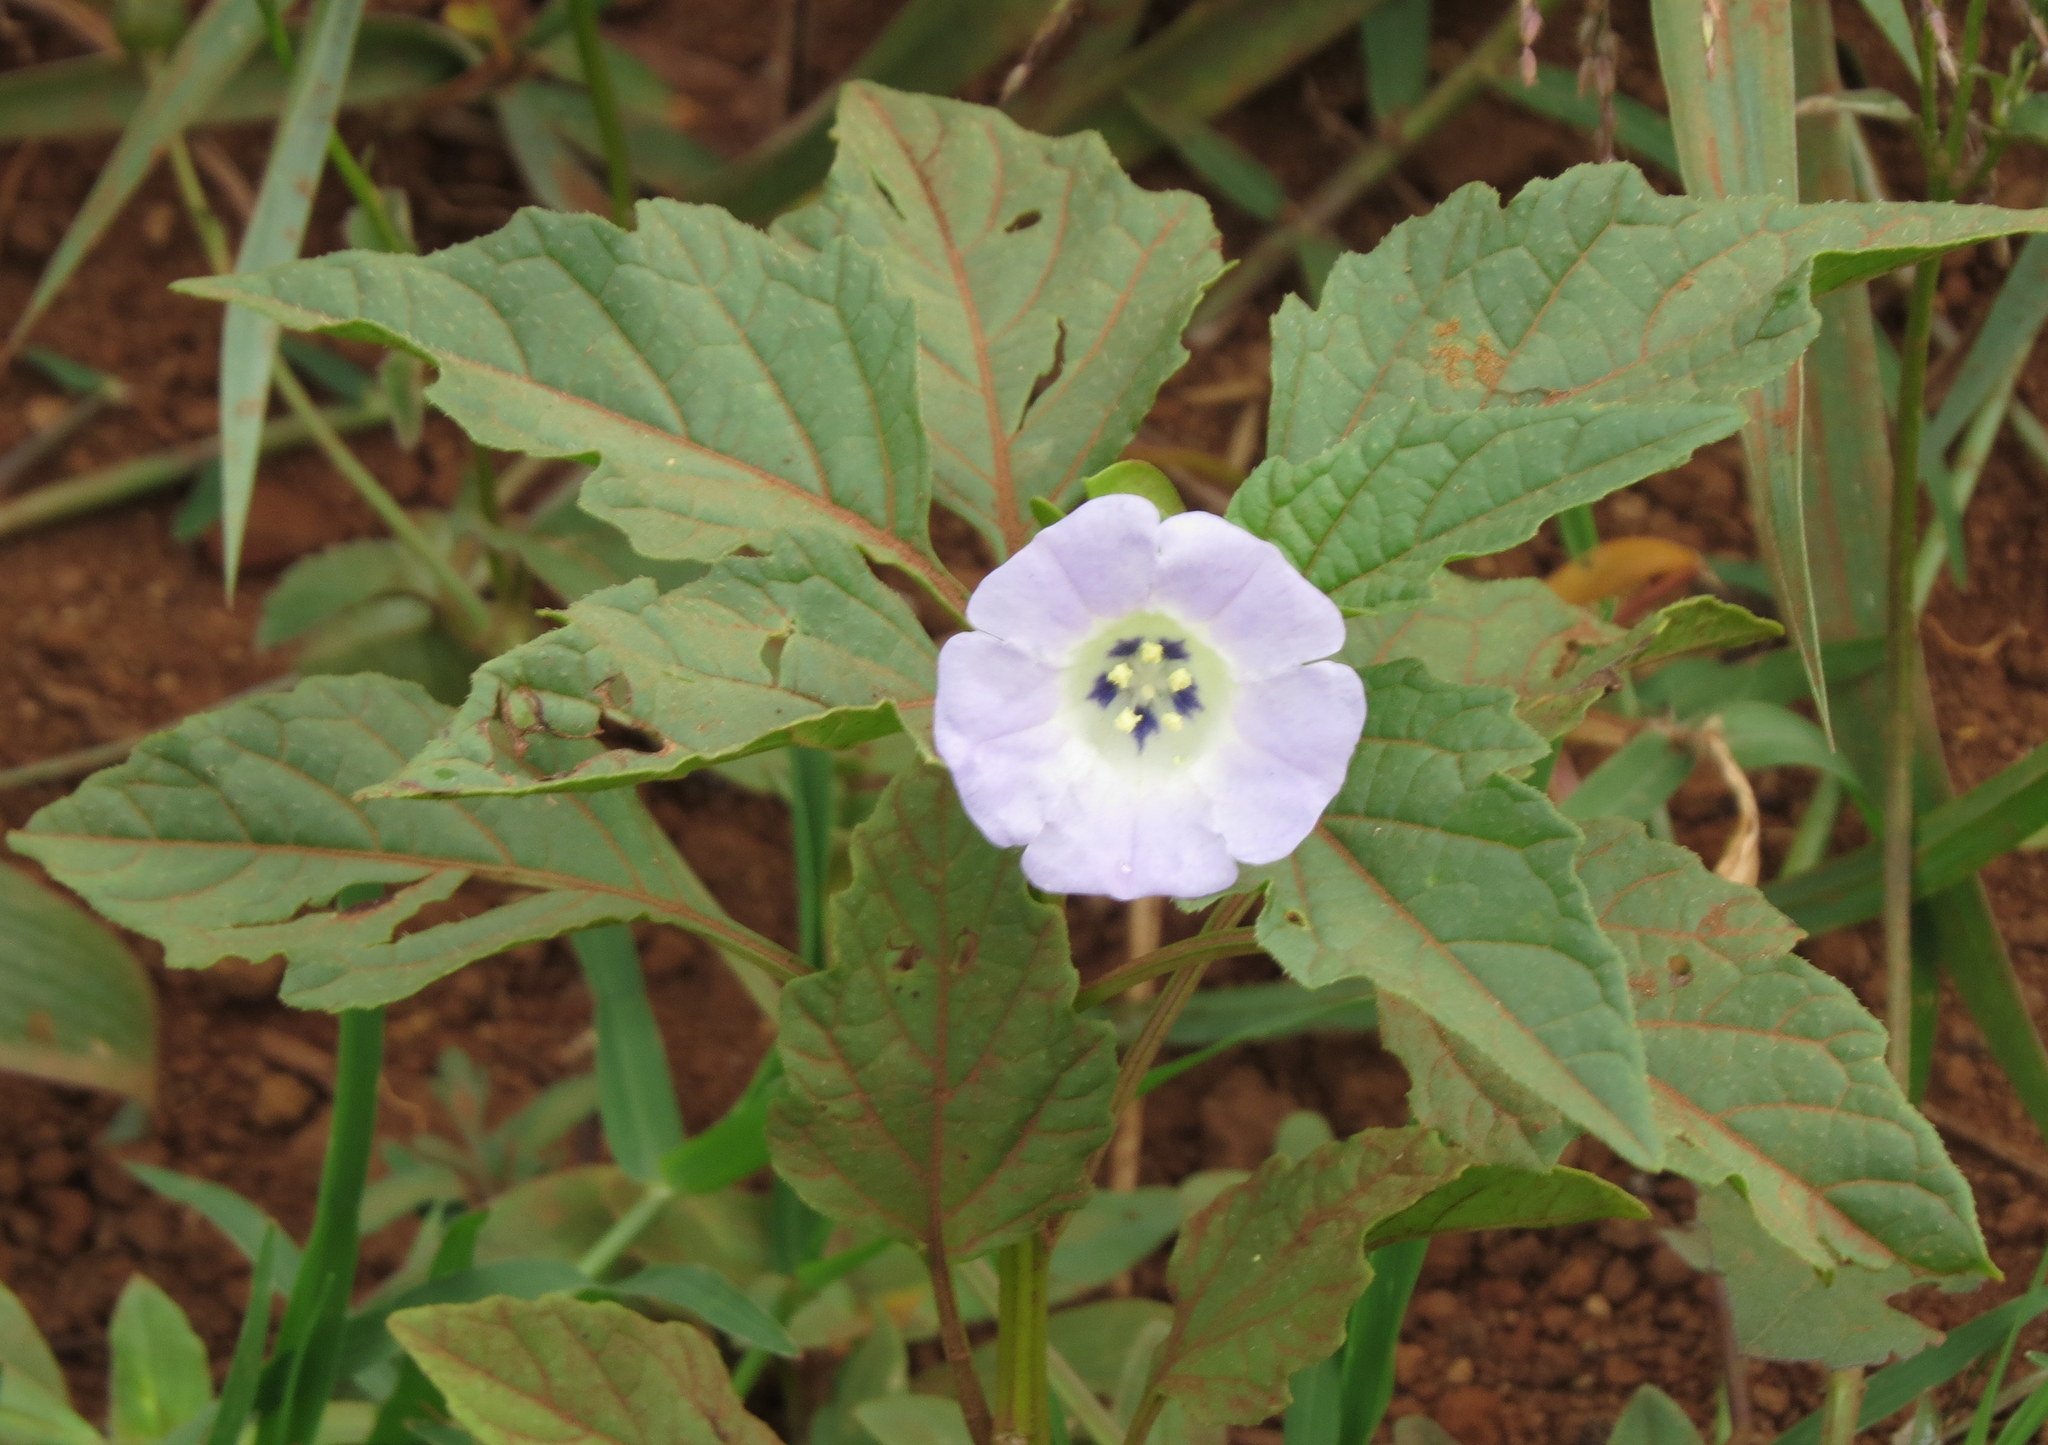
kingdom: Plantae
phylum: Tracheophyta
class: Magnoliopsida
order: Solanales
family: Solanaceae
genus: Nicandra
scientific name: Nicandra physalodes
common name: Apple-of-peru
